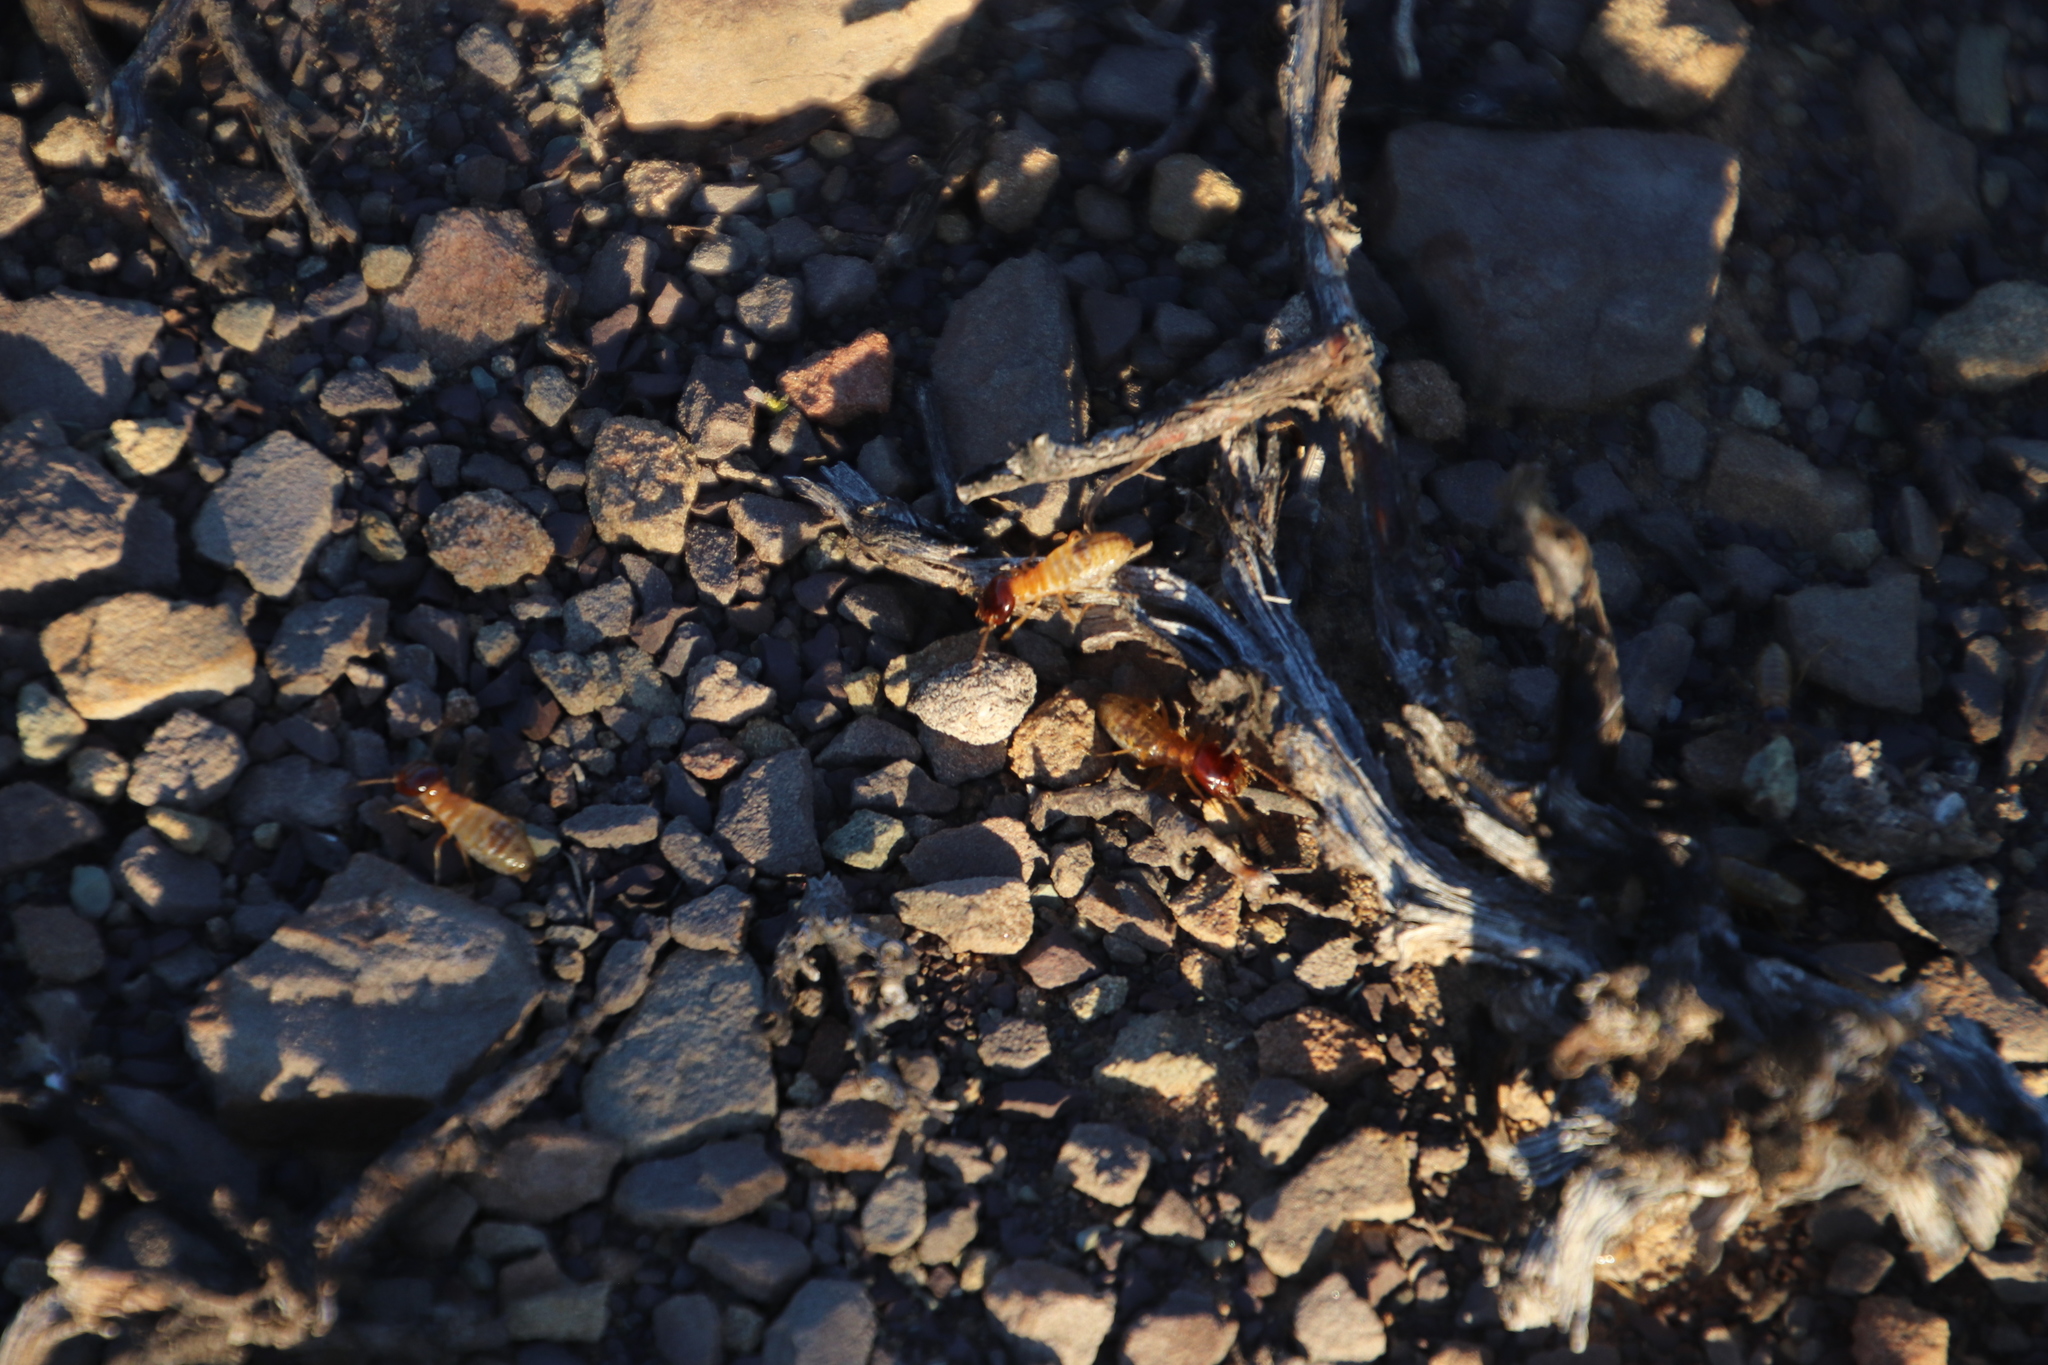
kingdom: Animalia
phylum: Arthropoda
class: Insecta
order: Blattodea
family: Hodotermitidae
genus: Microhodotermes
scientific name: Microhodotermes viator
